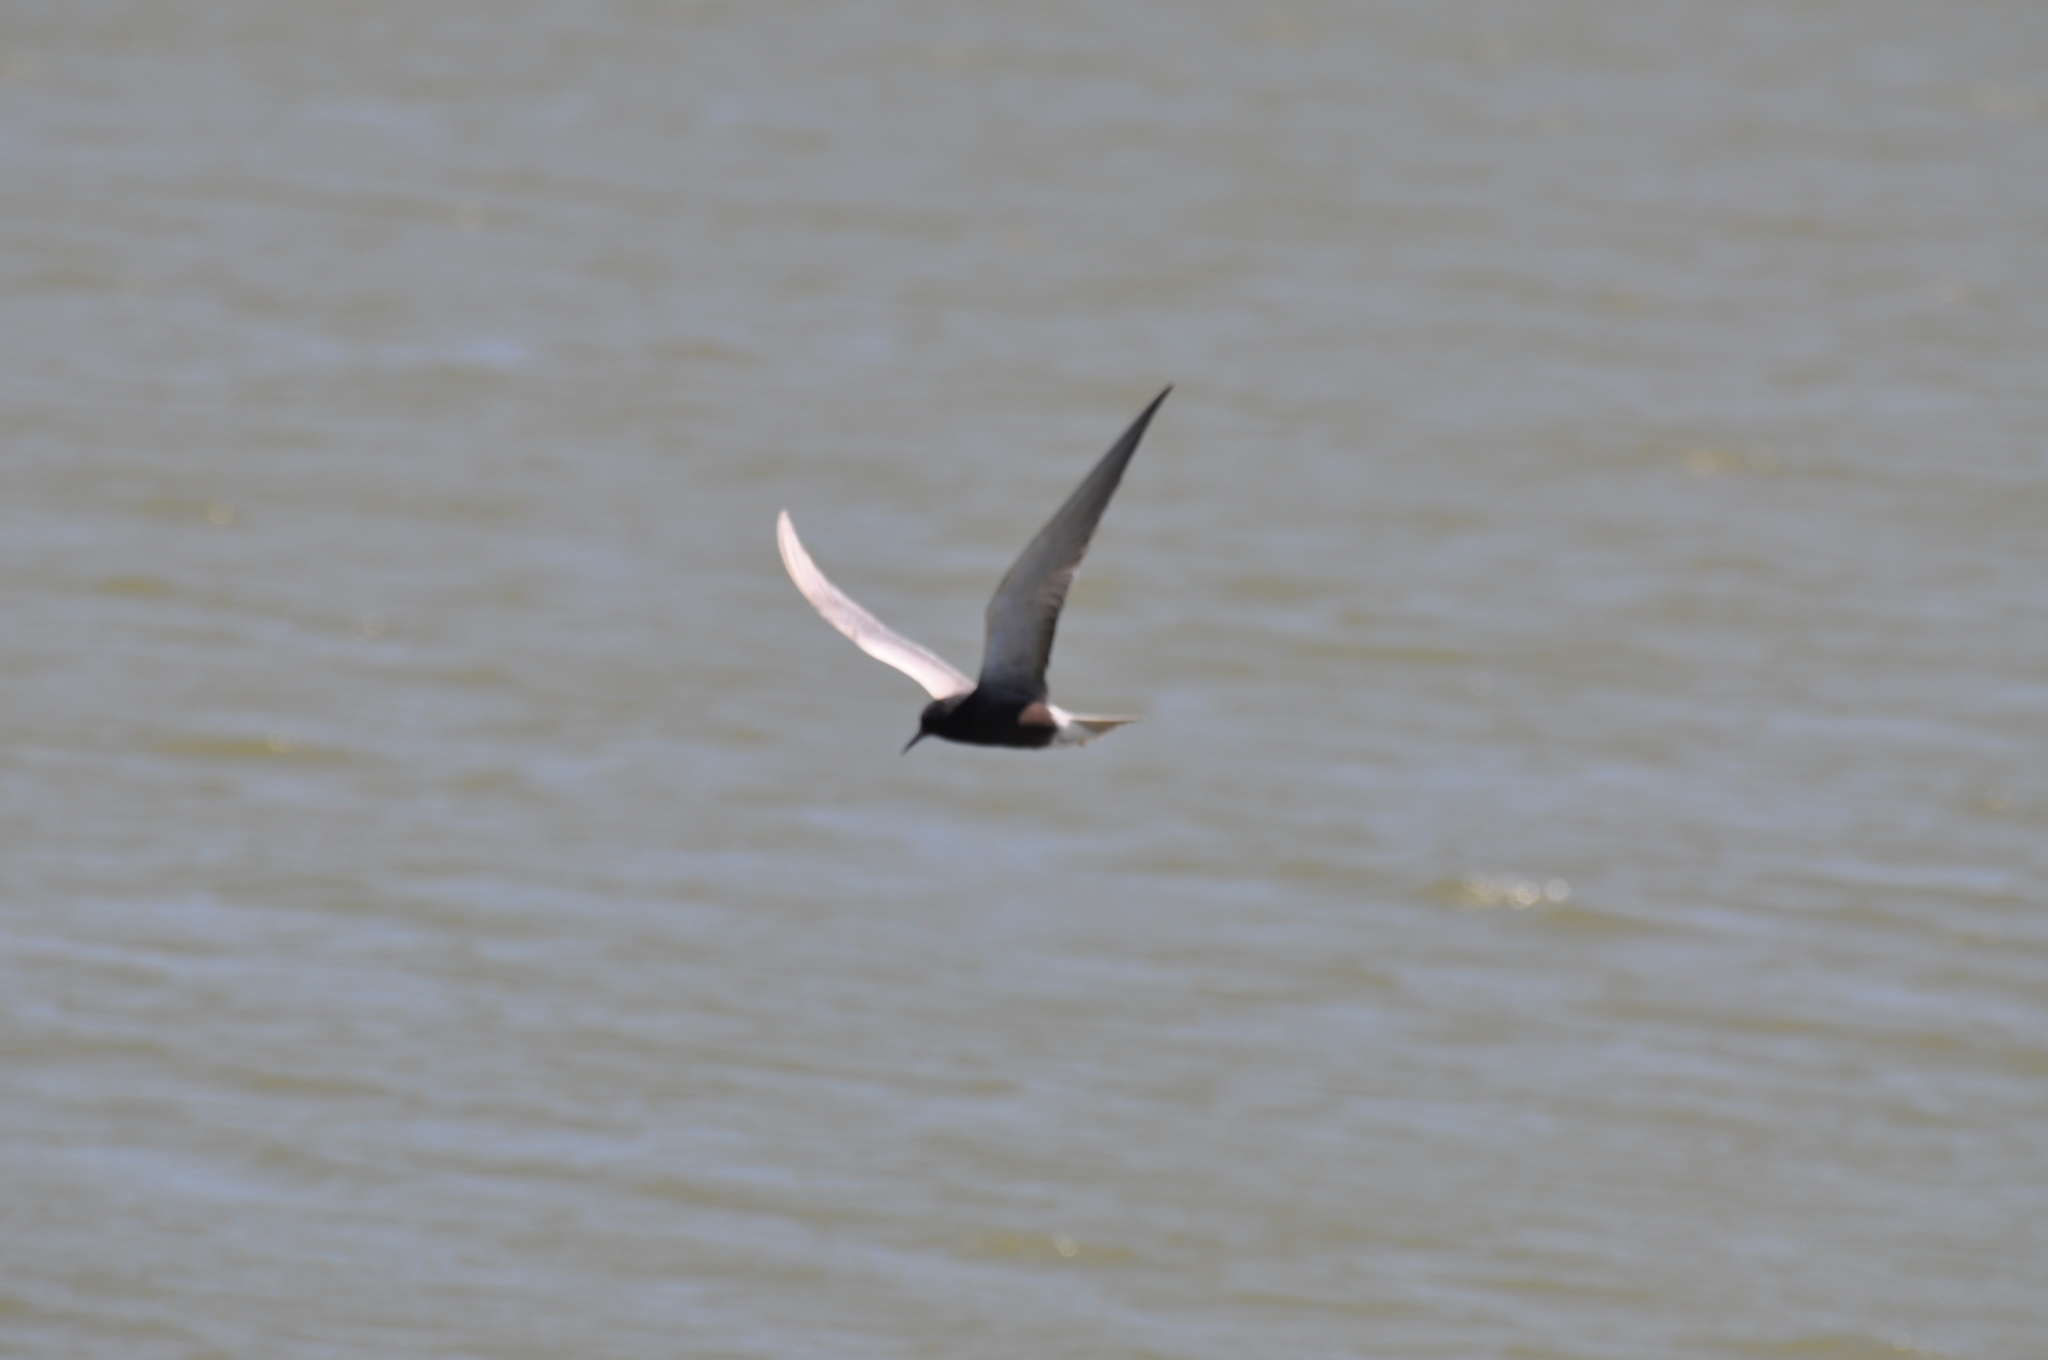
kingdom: Animalia
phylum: Chordata
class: Aves
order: Charadriiformes
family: Laridae
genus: Chlidonias
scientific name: Chlidonias niger
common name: Black tern
